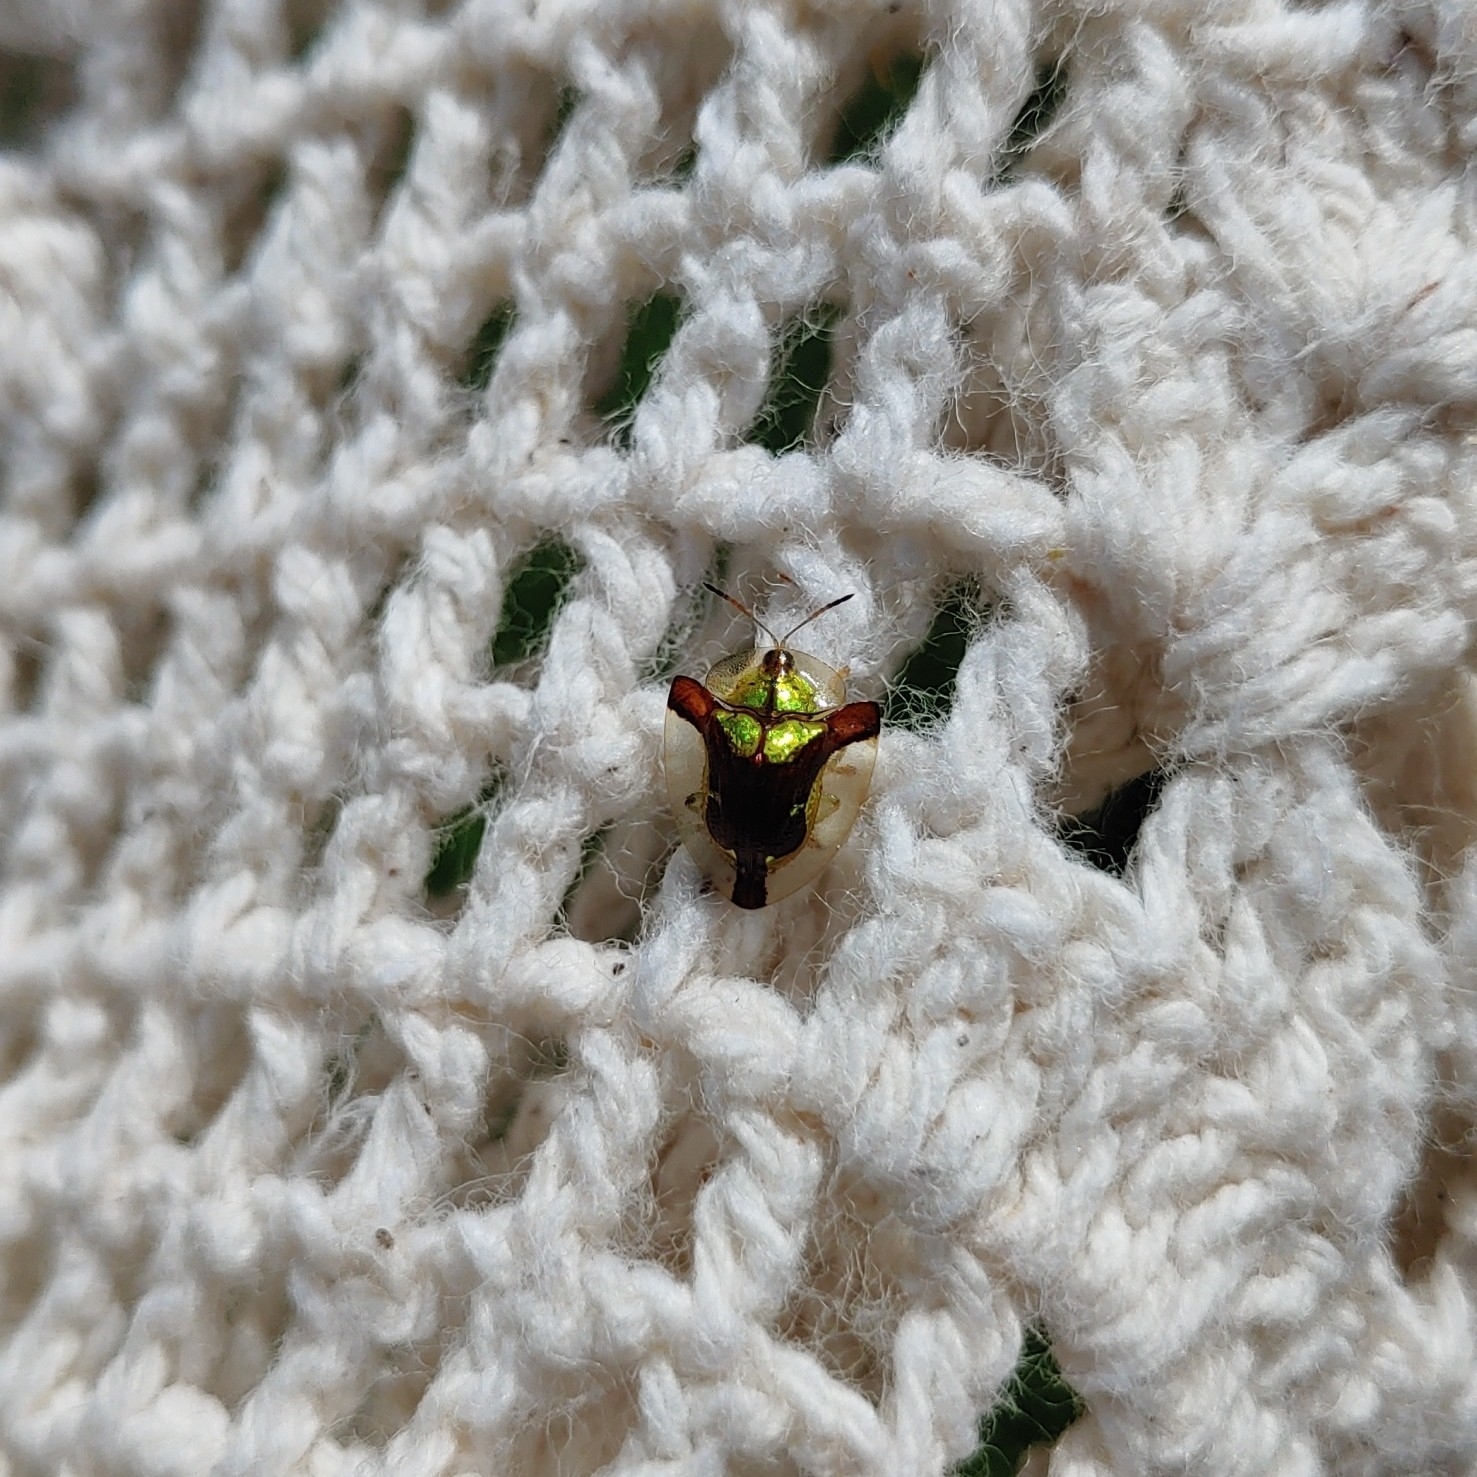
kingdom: Animalia
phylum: Arthropoda
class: Insecta
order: Coleoptera
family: Chrysomelidae
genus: Deloyala
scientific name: Deloyala cruciata
